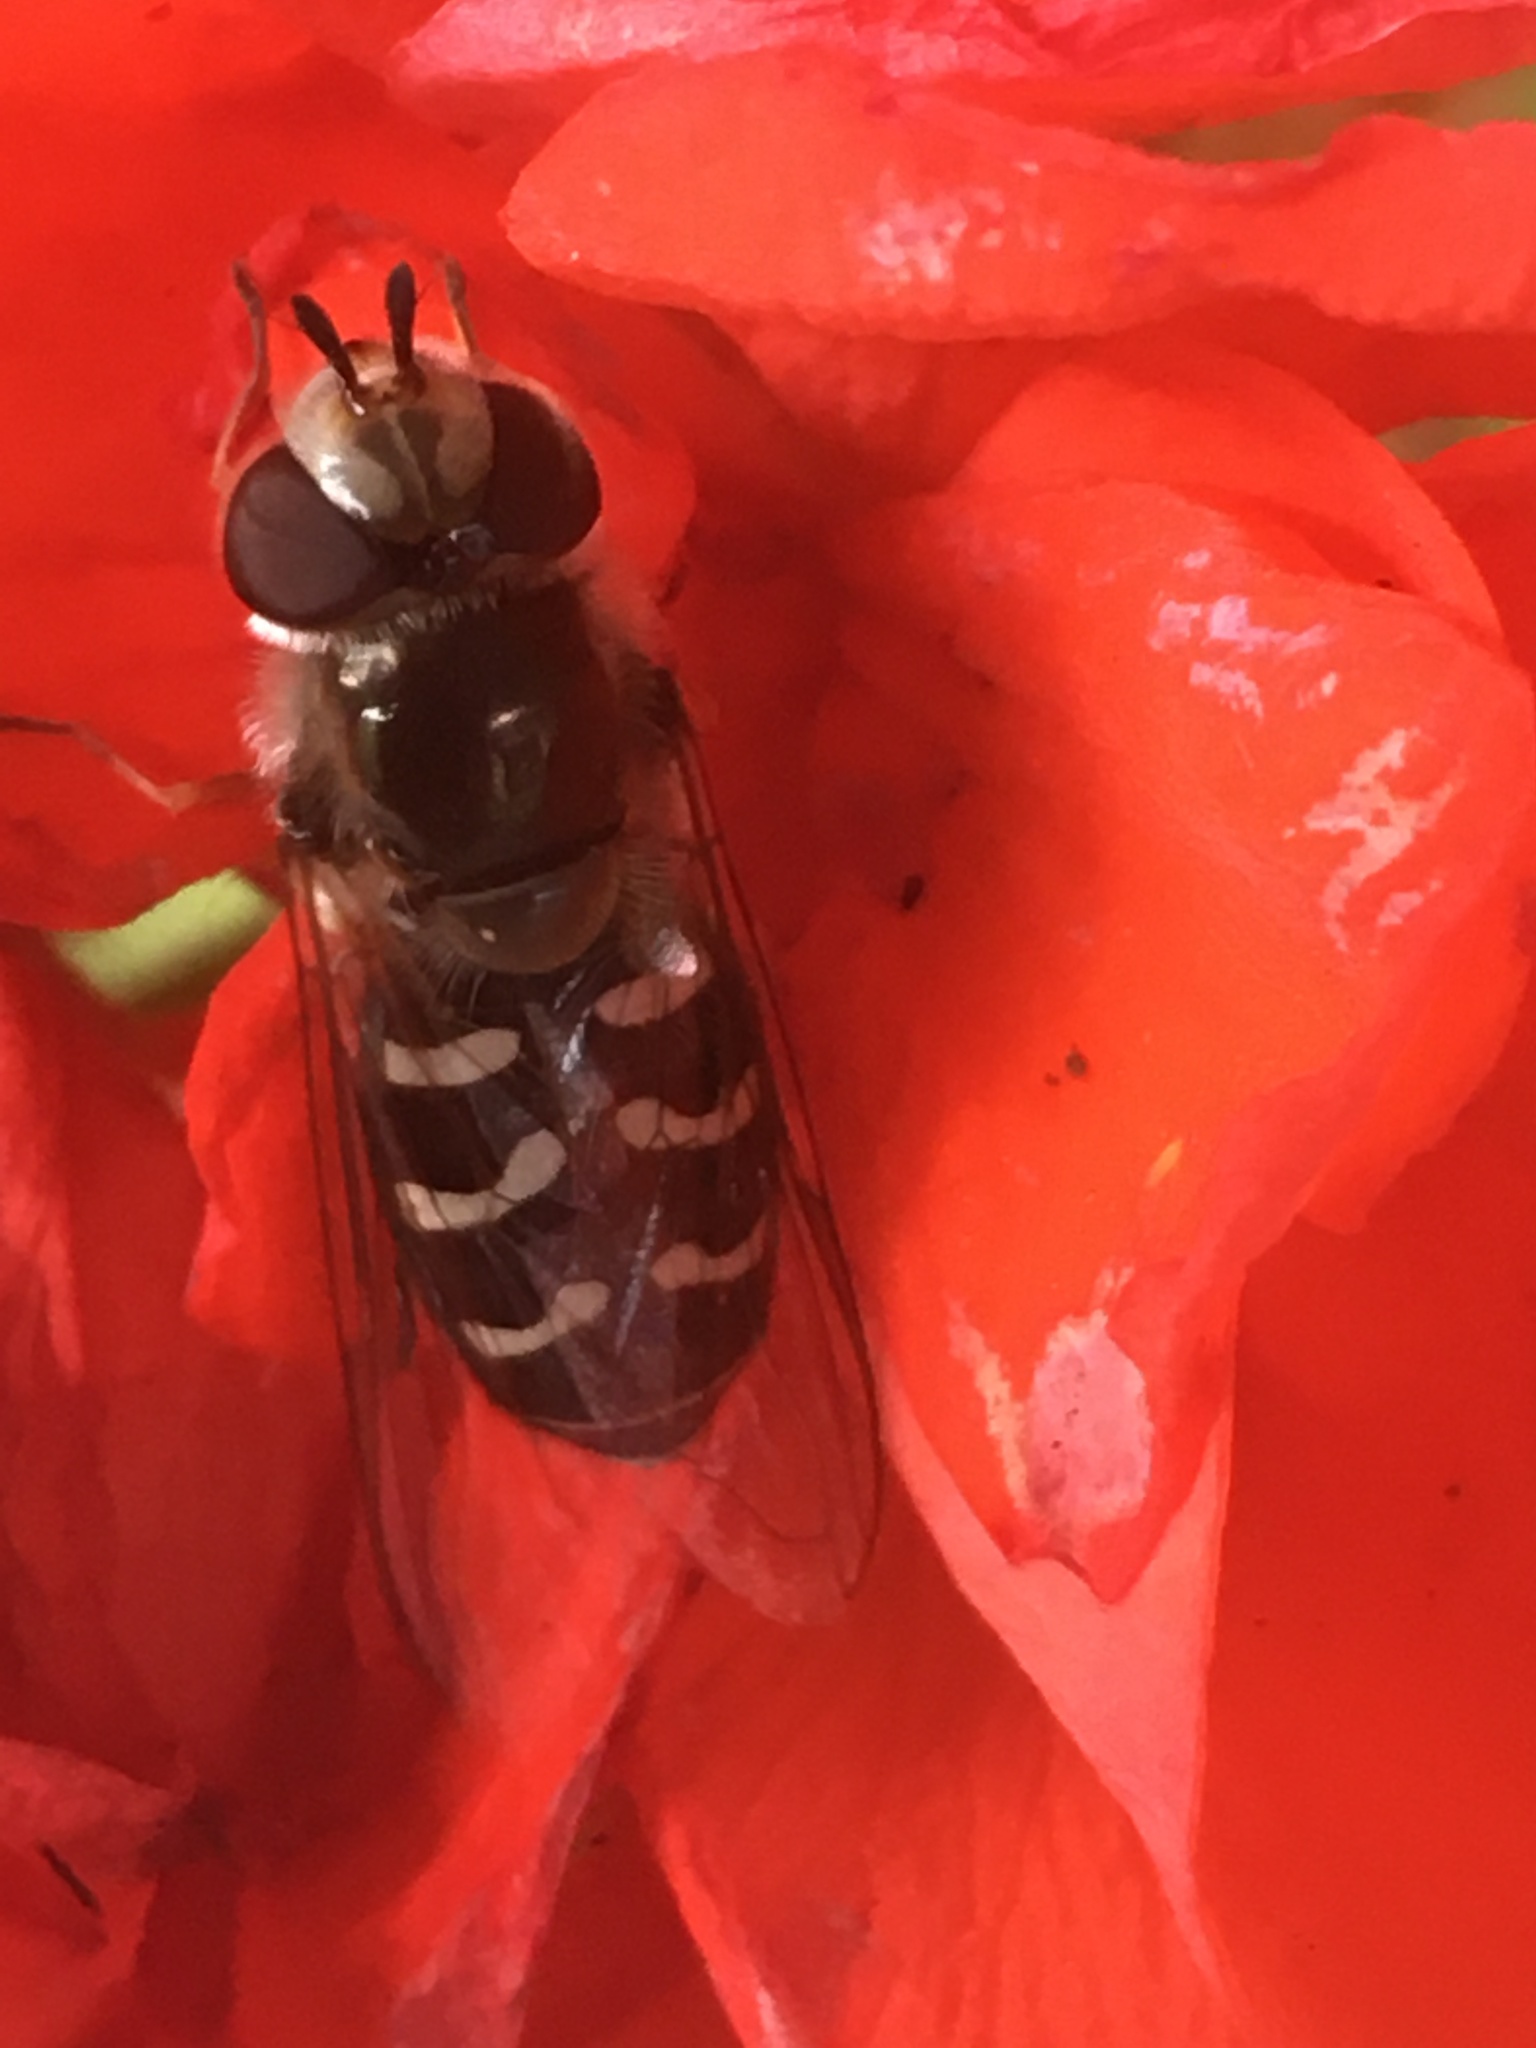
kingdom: Animalia
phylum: Arthropoda
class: Insecta
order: Diptera
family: Syrphidae
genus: Scaeva
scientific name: Scaeva affinis
